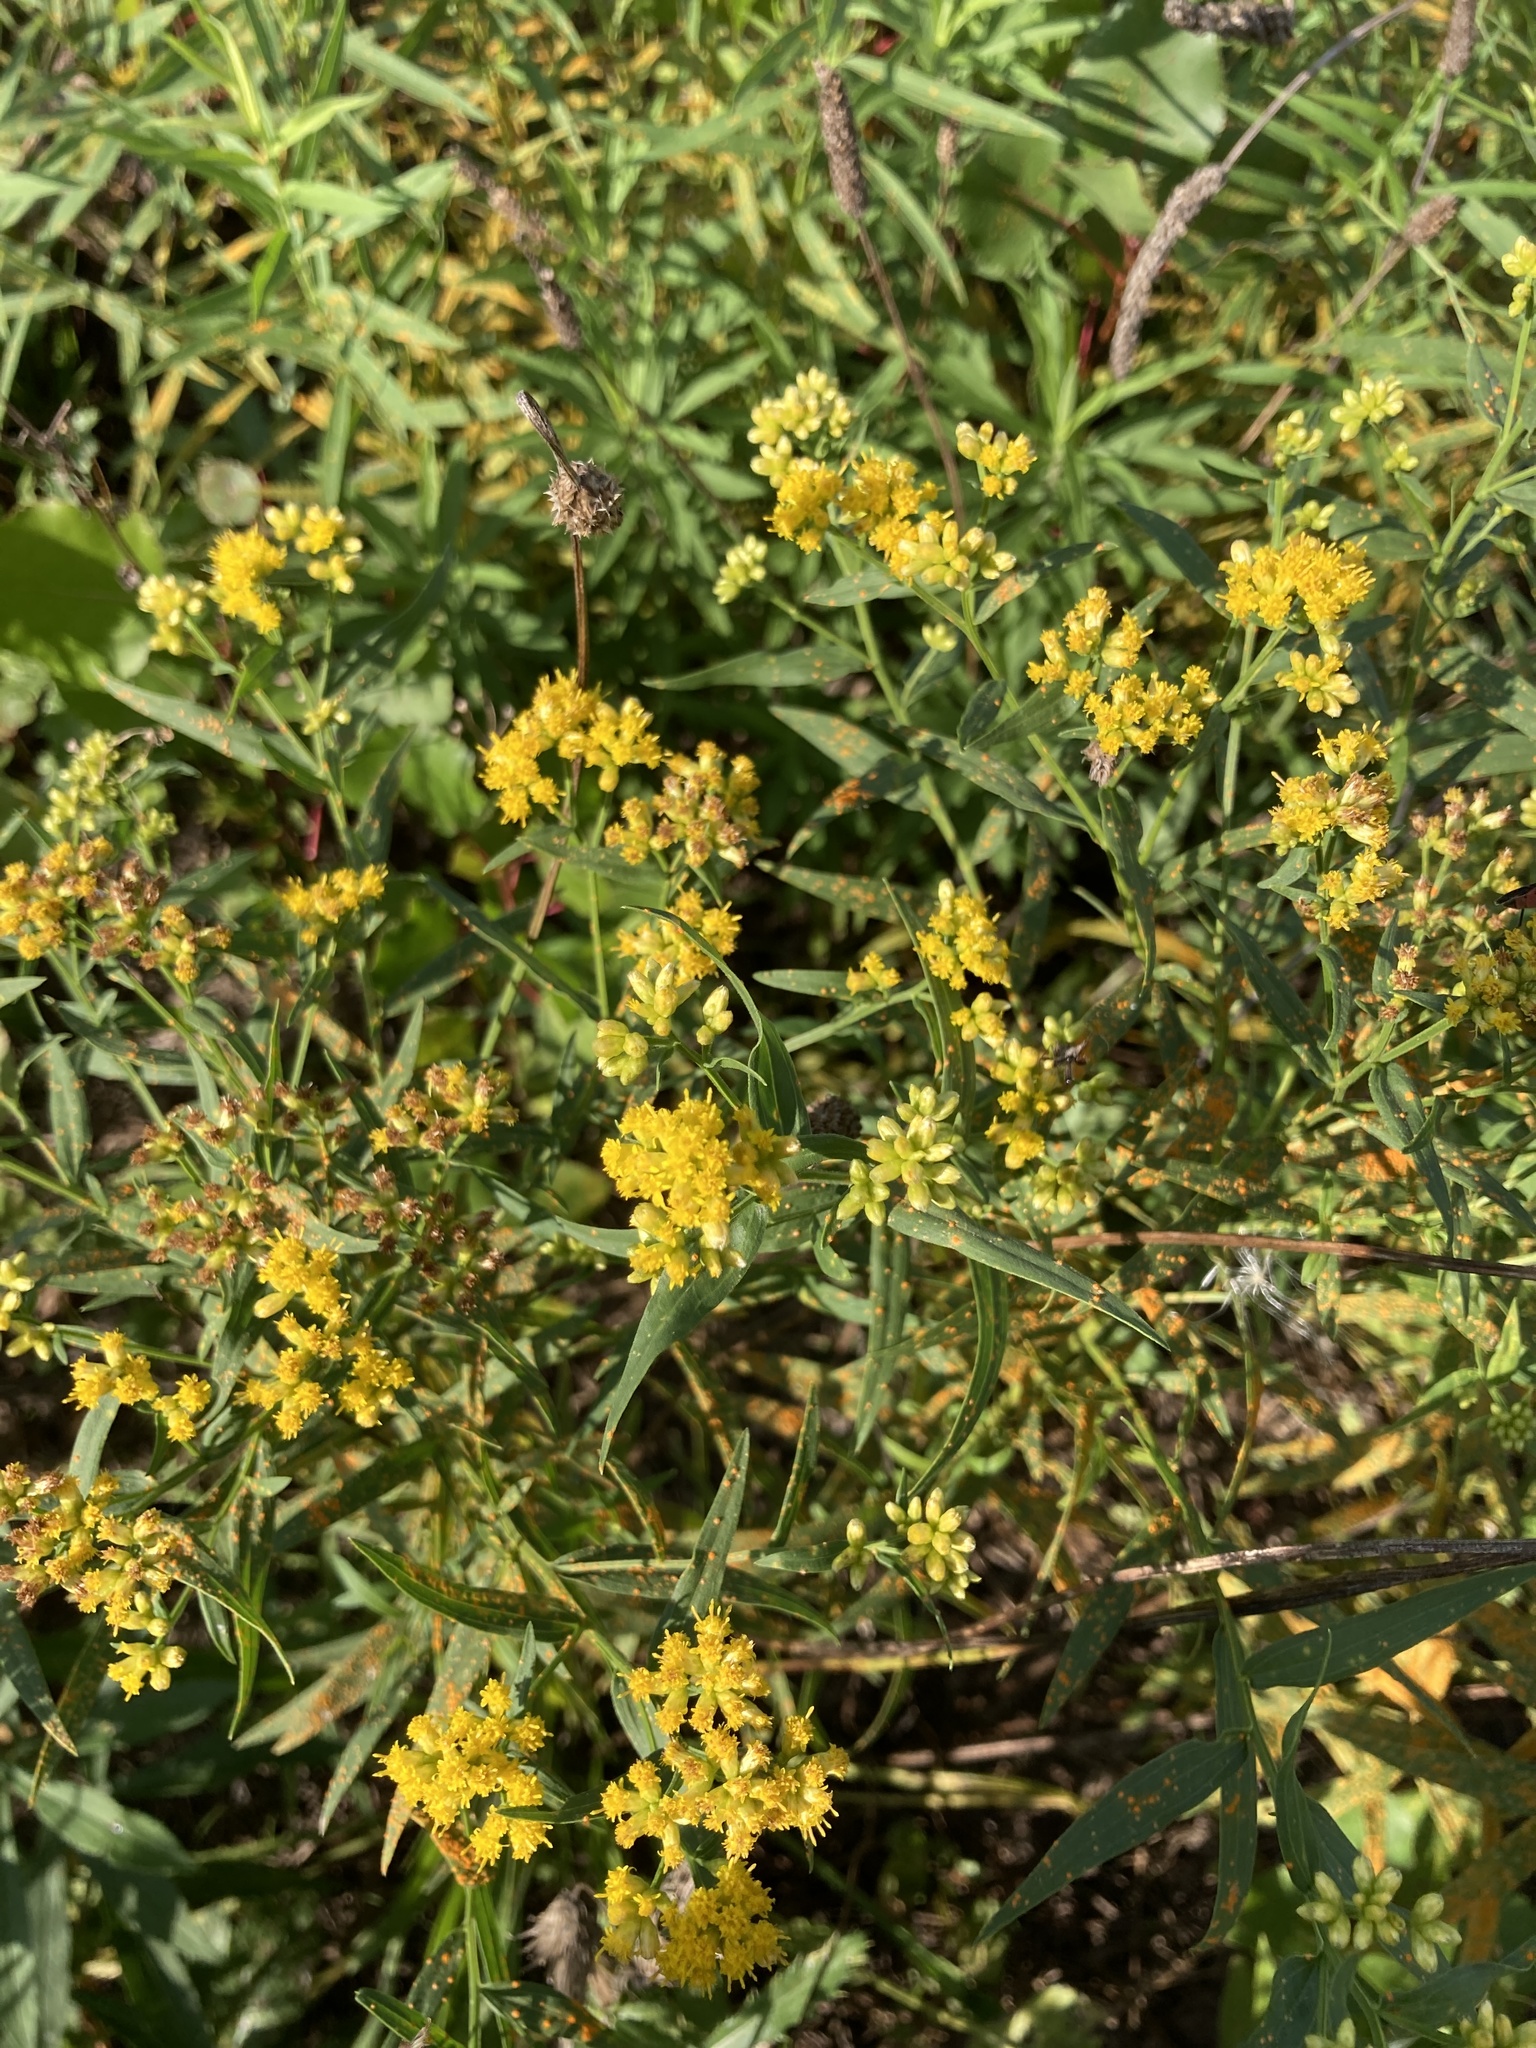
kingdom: Plantae
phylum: Tracheophyta
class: Magnoliopsida
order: Asterales
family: Asteraceae
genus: Euthamia
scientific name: Euthamia graminifolia
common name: Common goldentop
